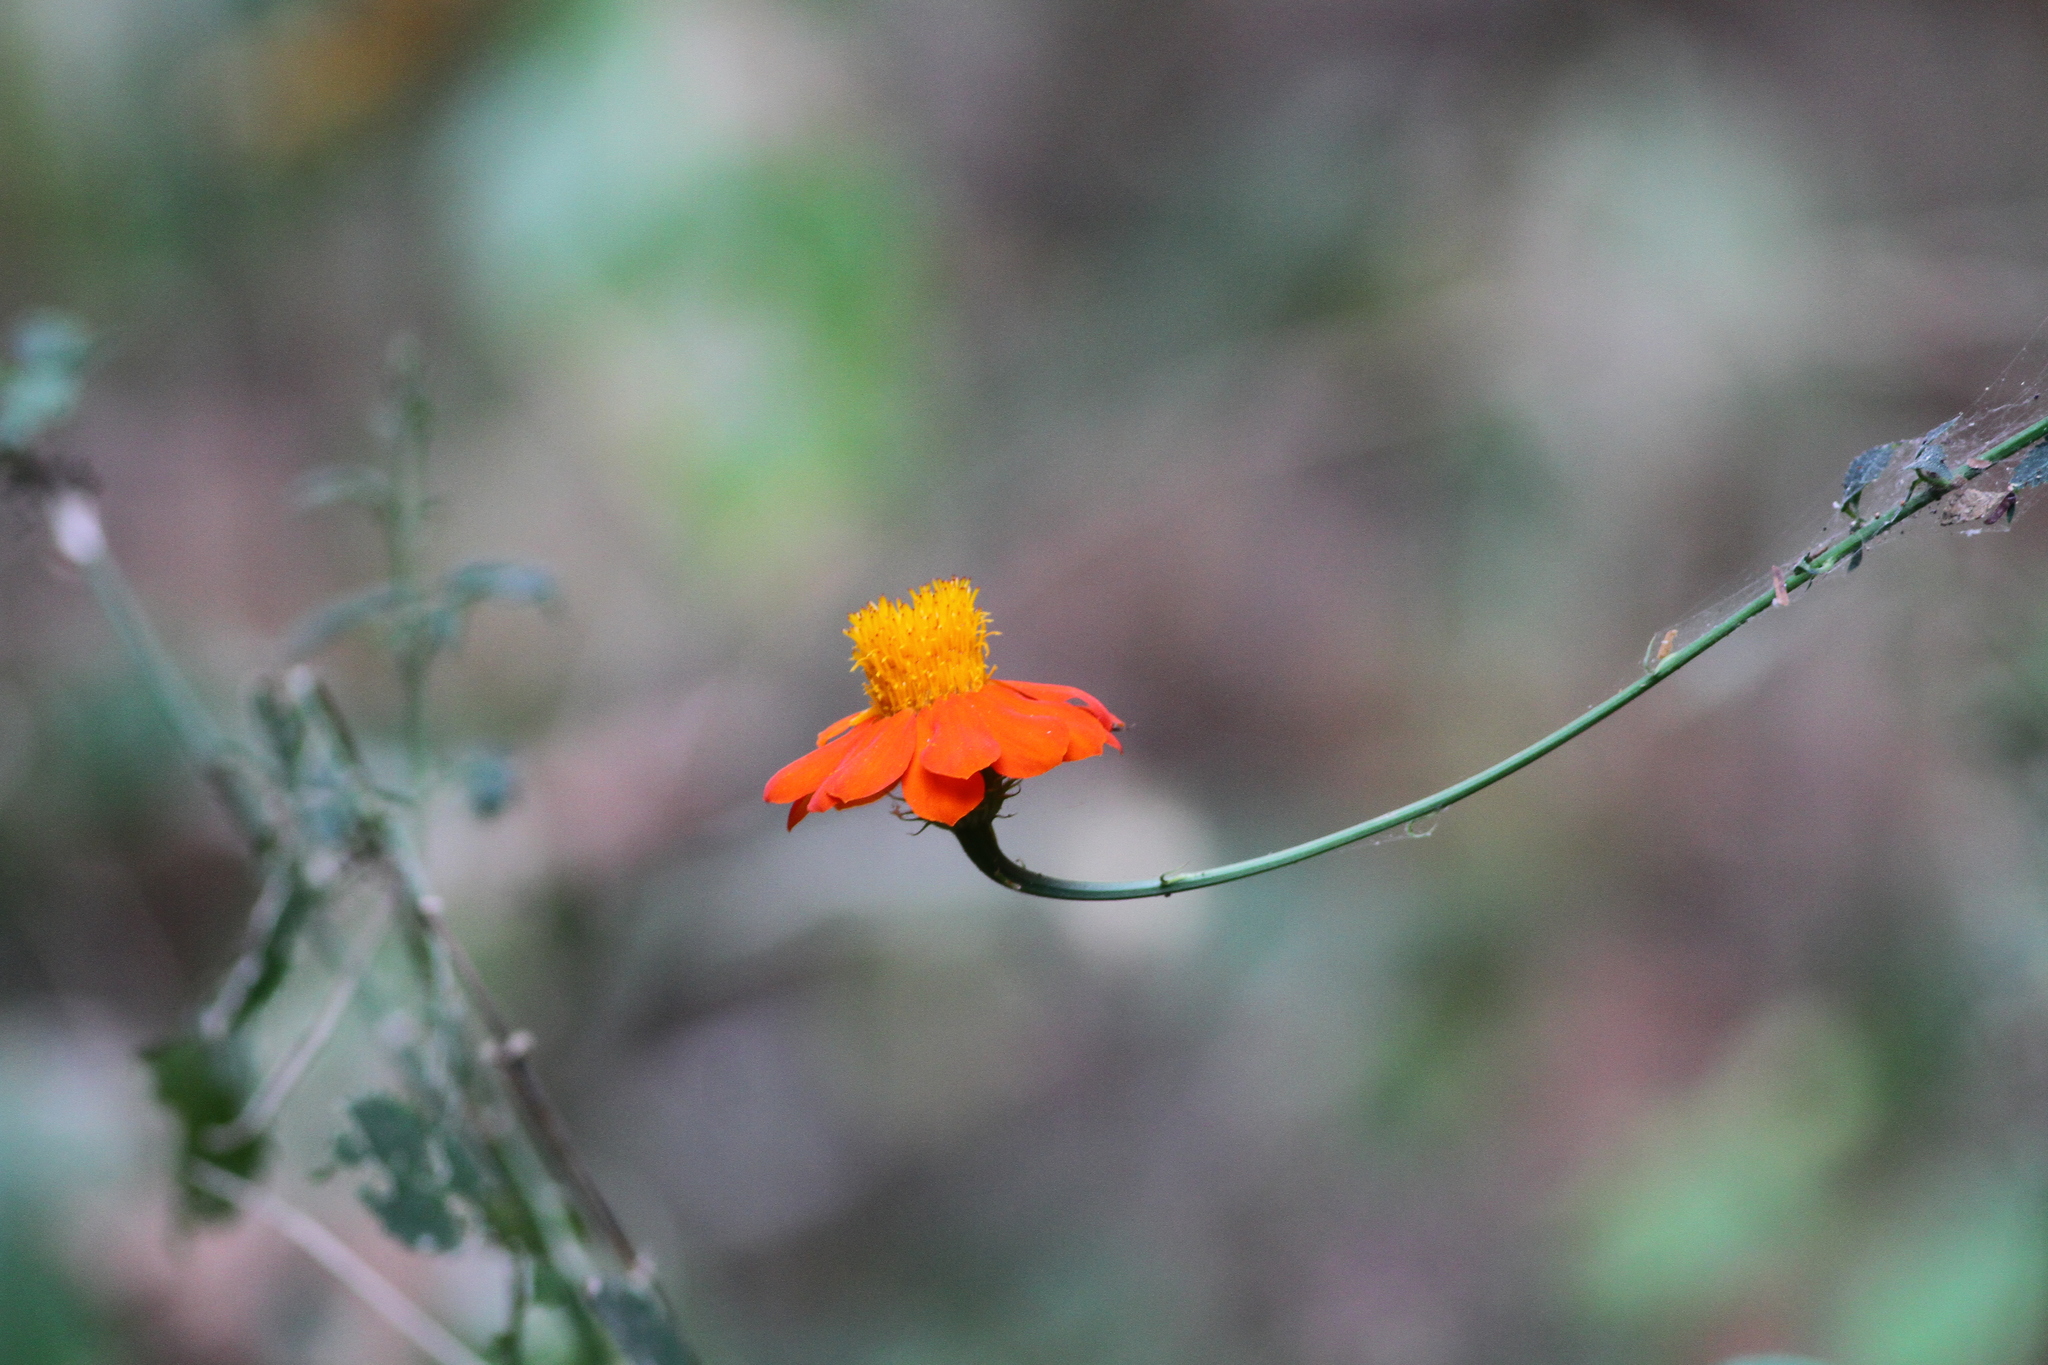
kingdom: Plantae
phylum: Tracheophyta
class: Magnoliopsida
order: Asterales
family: Asteraceae
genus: Adenophyllum
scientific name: Adenophyllum aurantium
